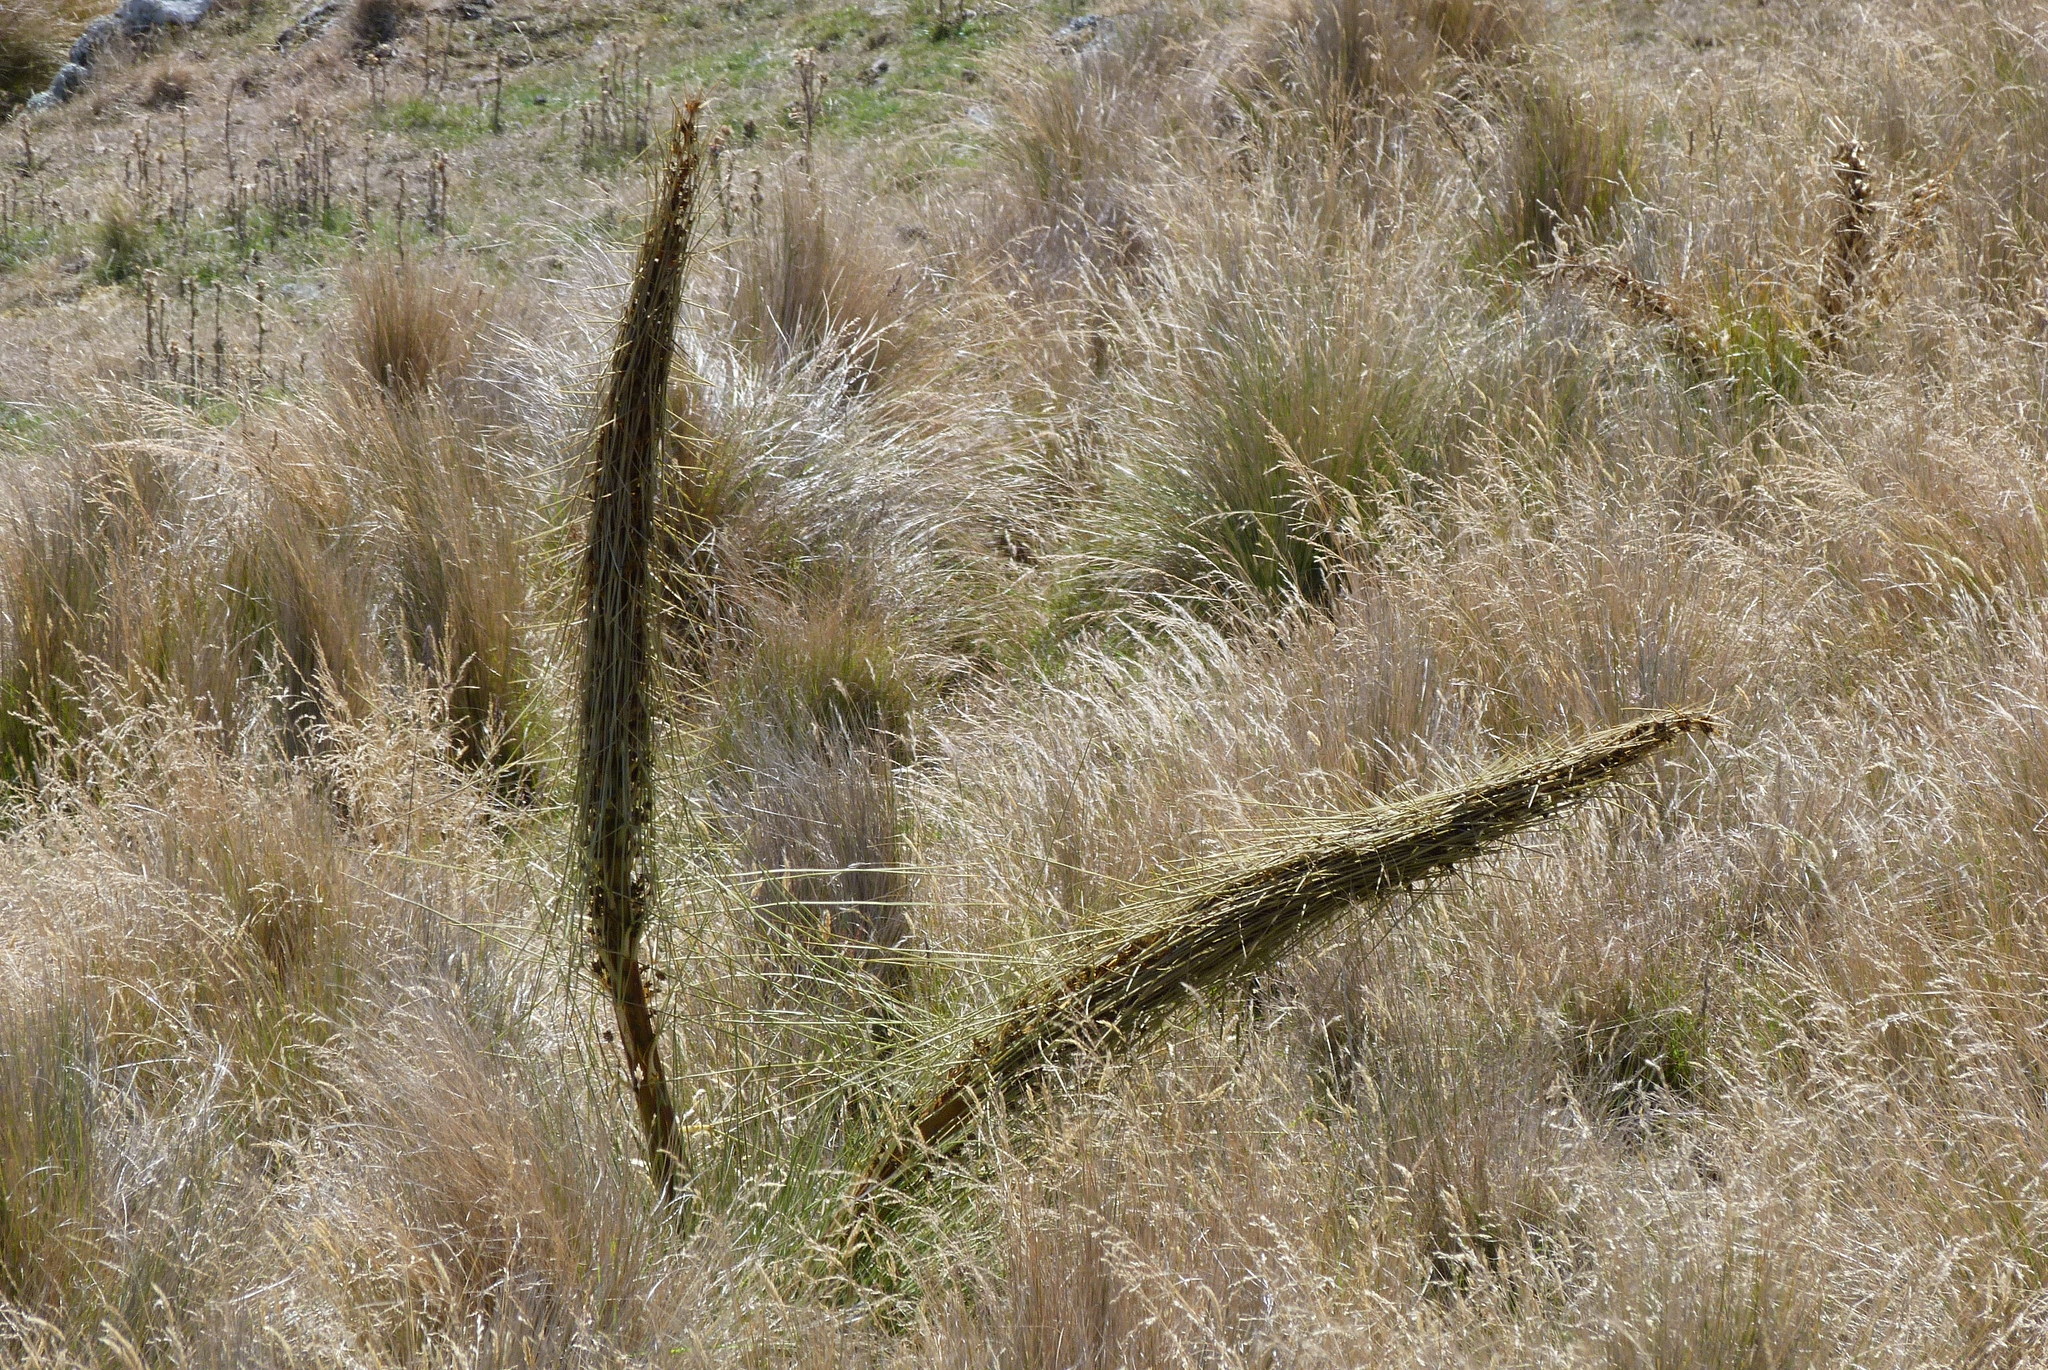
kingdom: Plantae
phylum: Tracheophyta
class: Magnoliopsida
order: Apiales
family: Apiaceae
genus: Aciphylla
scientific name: Aciphylla subflabellata
